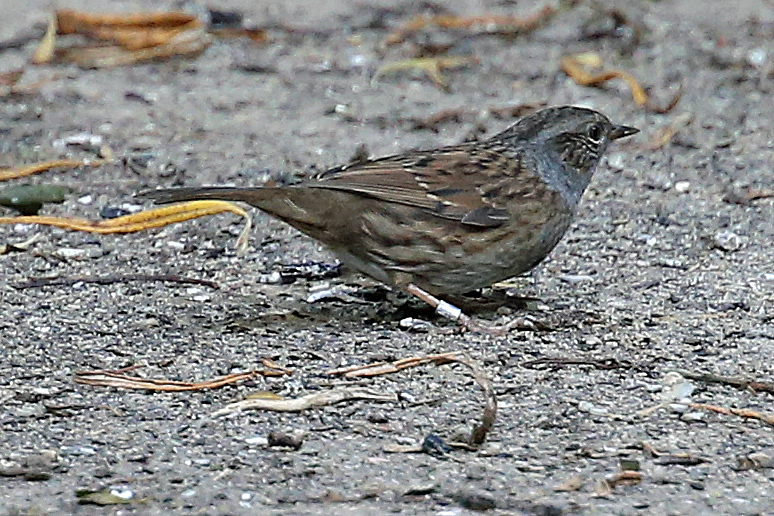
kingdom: Animalia
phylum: Chordata
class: Aves
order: Passeriformes
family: Prunellidae
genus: Prunella
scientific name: Prunella modularis
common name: Dunnock
